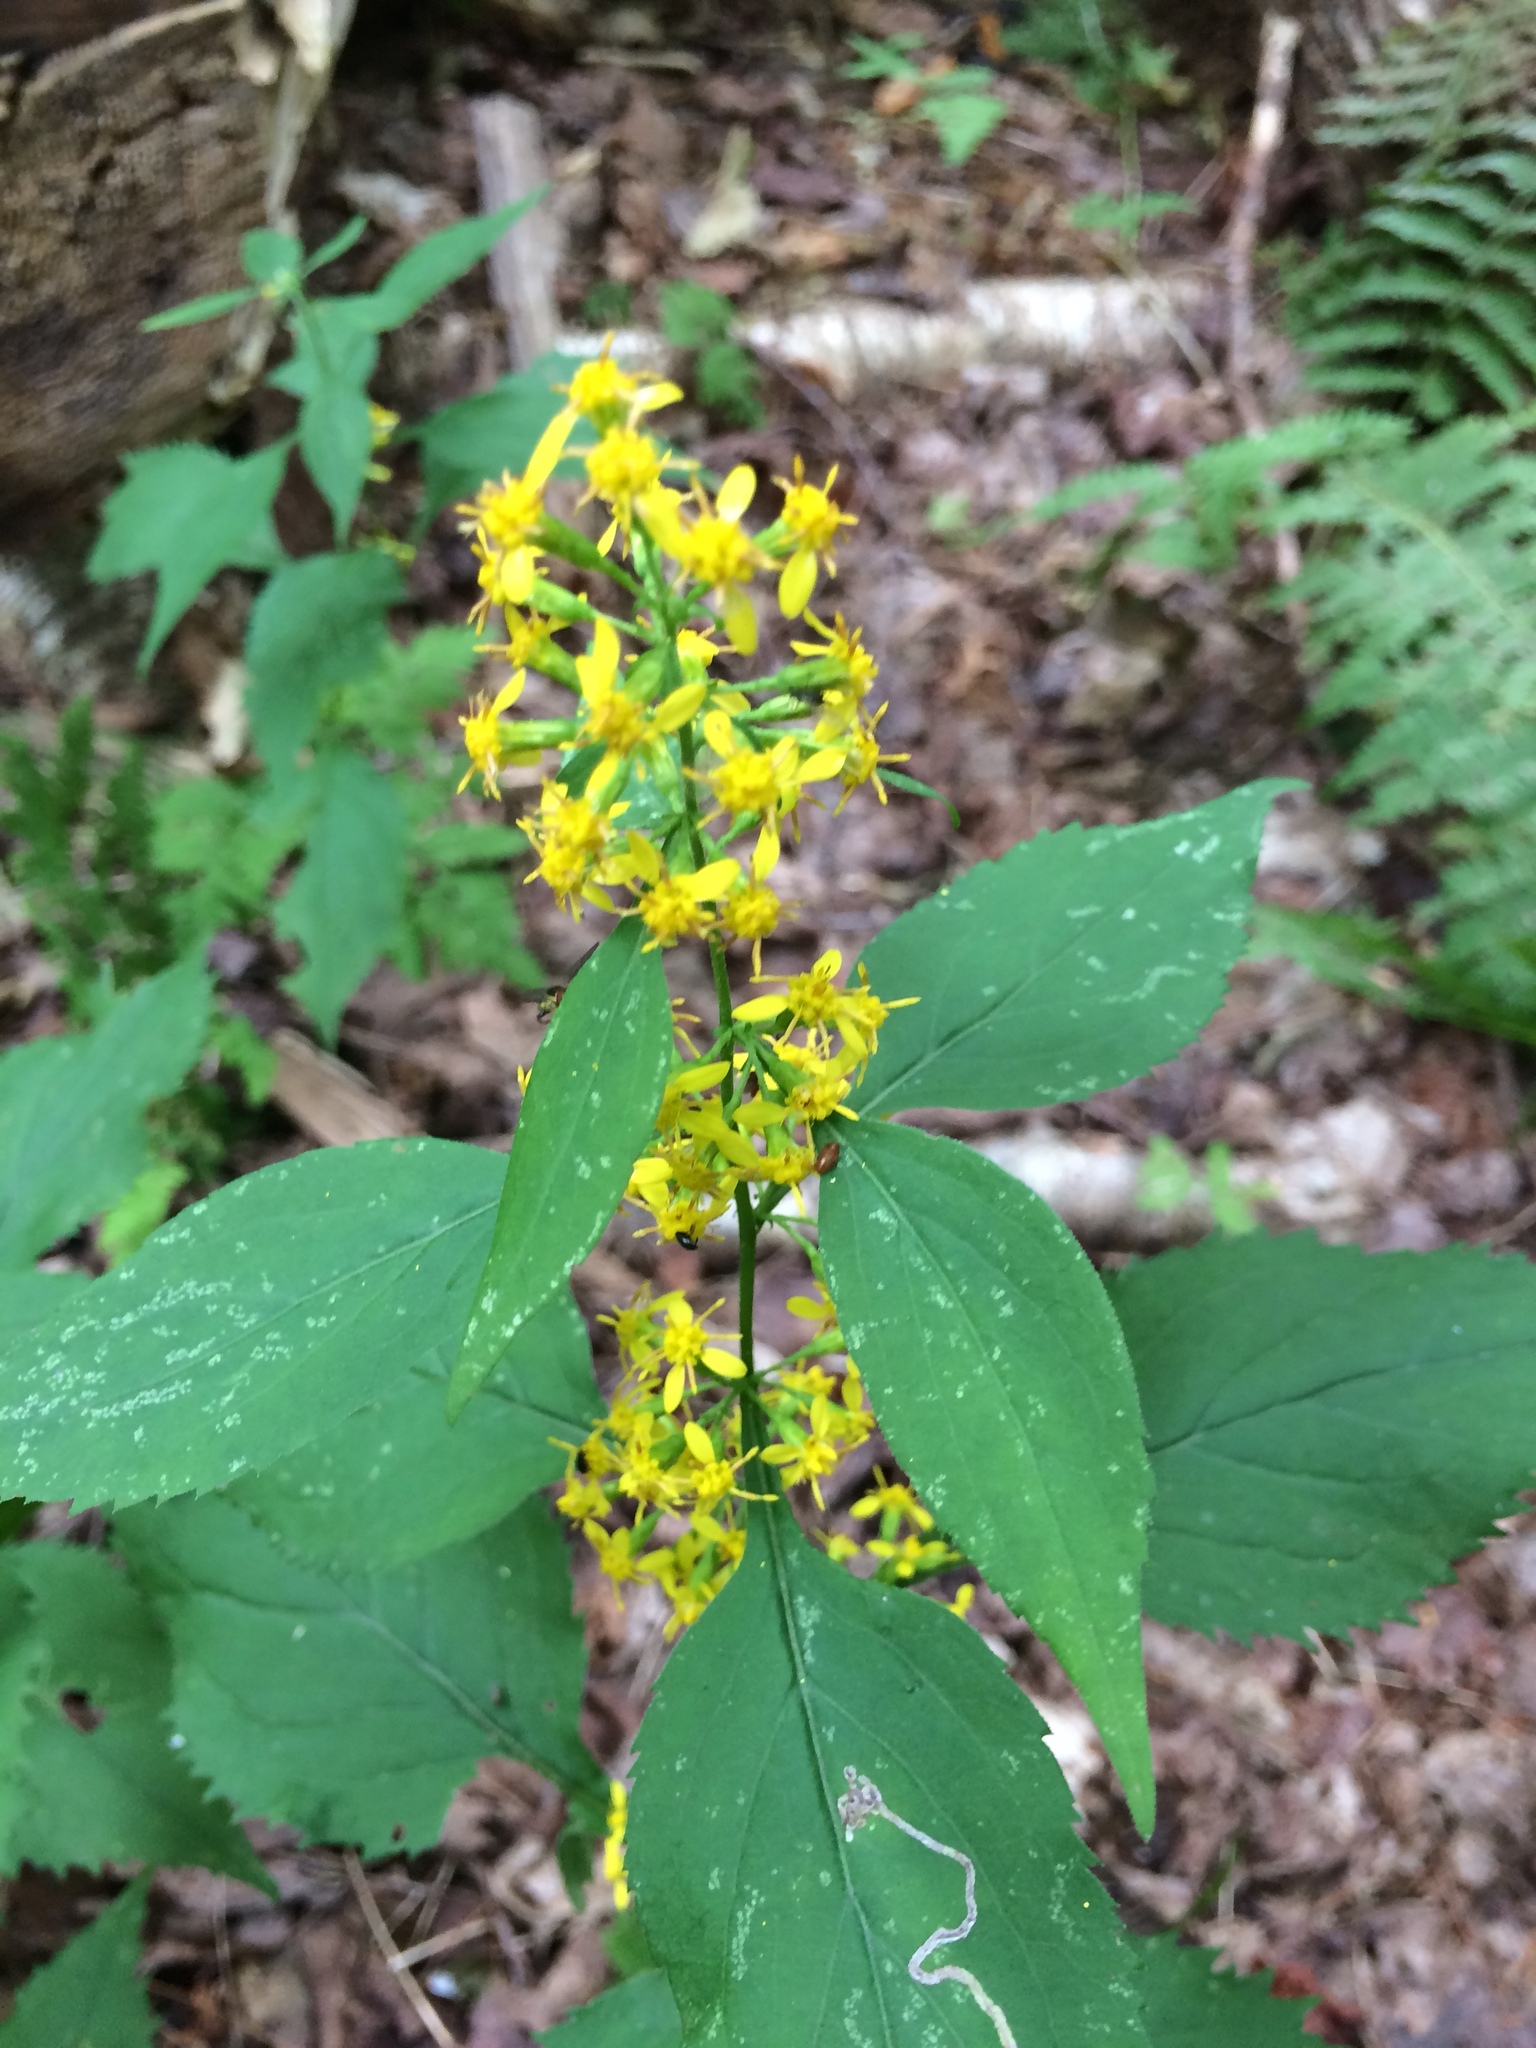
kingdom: Plantae
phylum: Tracheophyta
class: Magnoliopsida
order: Asterales
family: Asteraceae
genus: Solidago
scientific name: Solidago flexicaulis
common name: Zig-zag goldenrod
